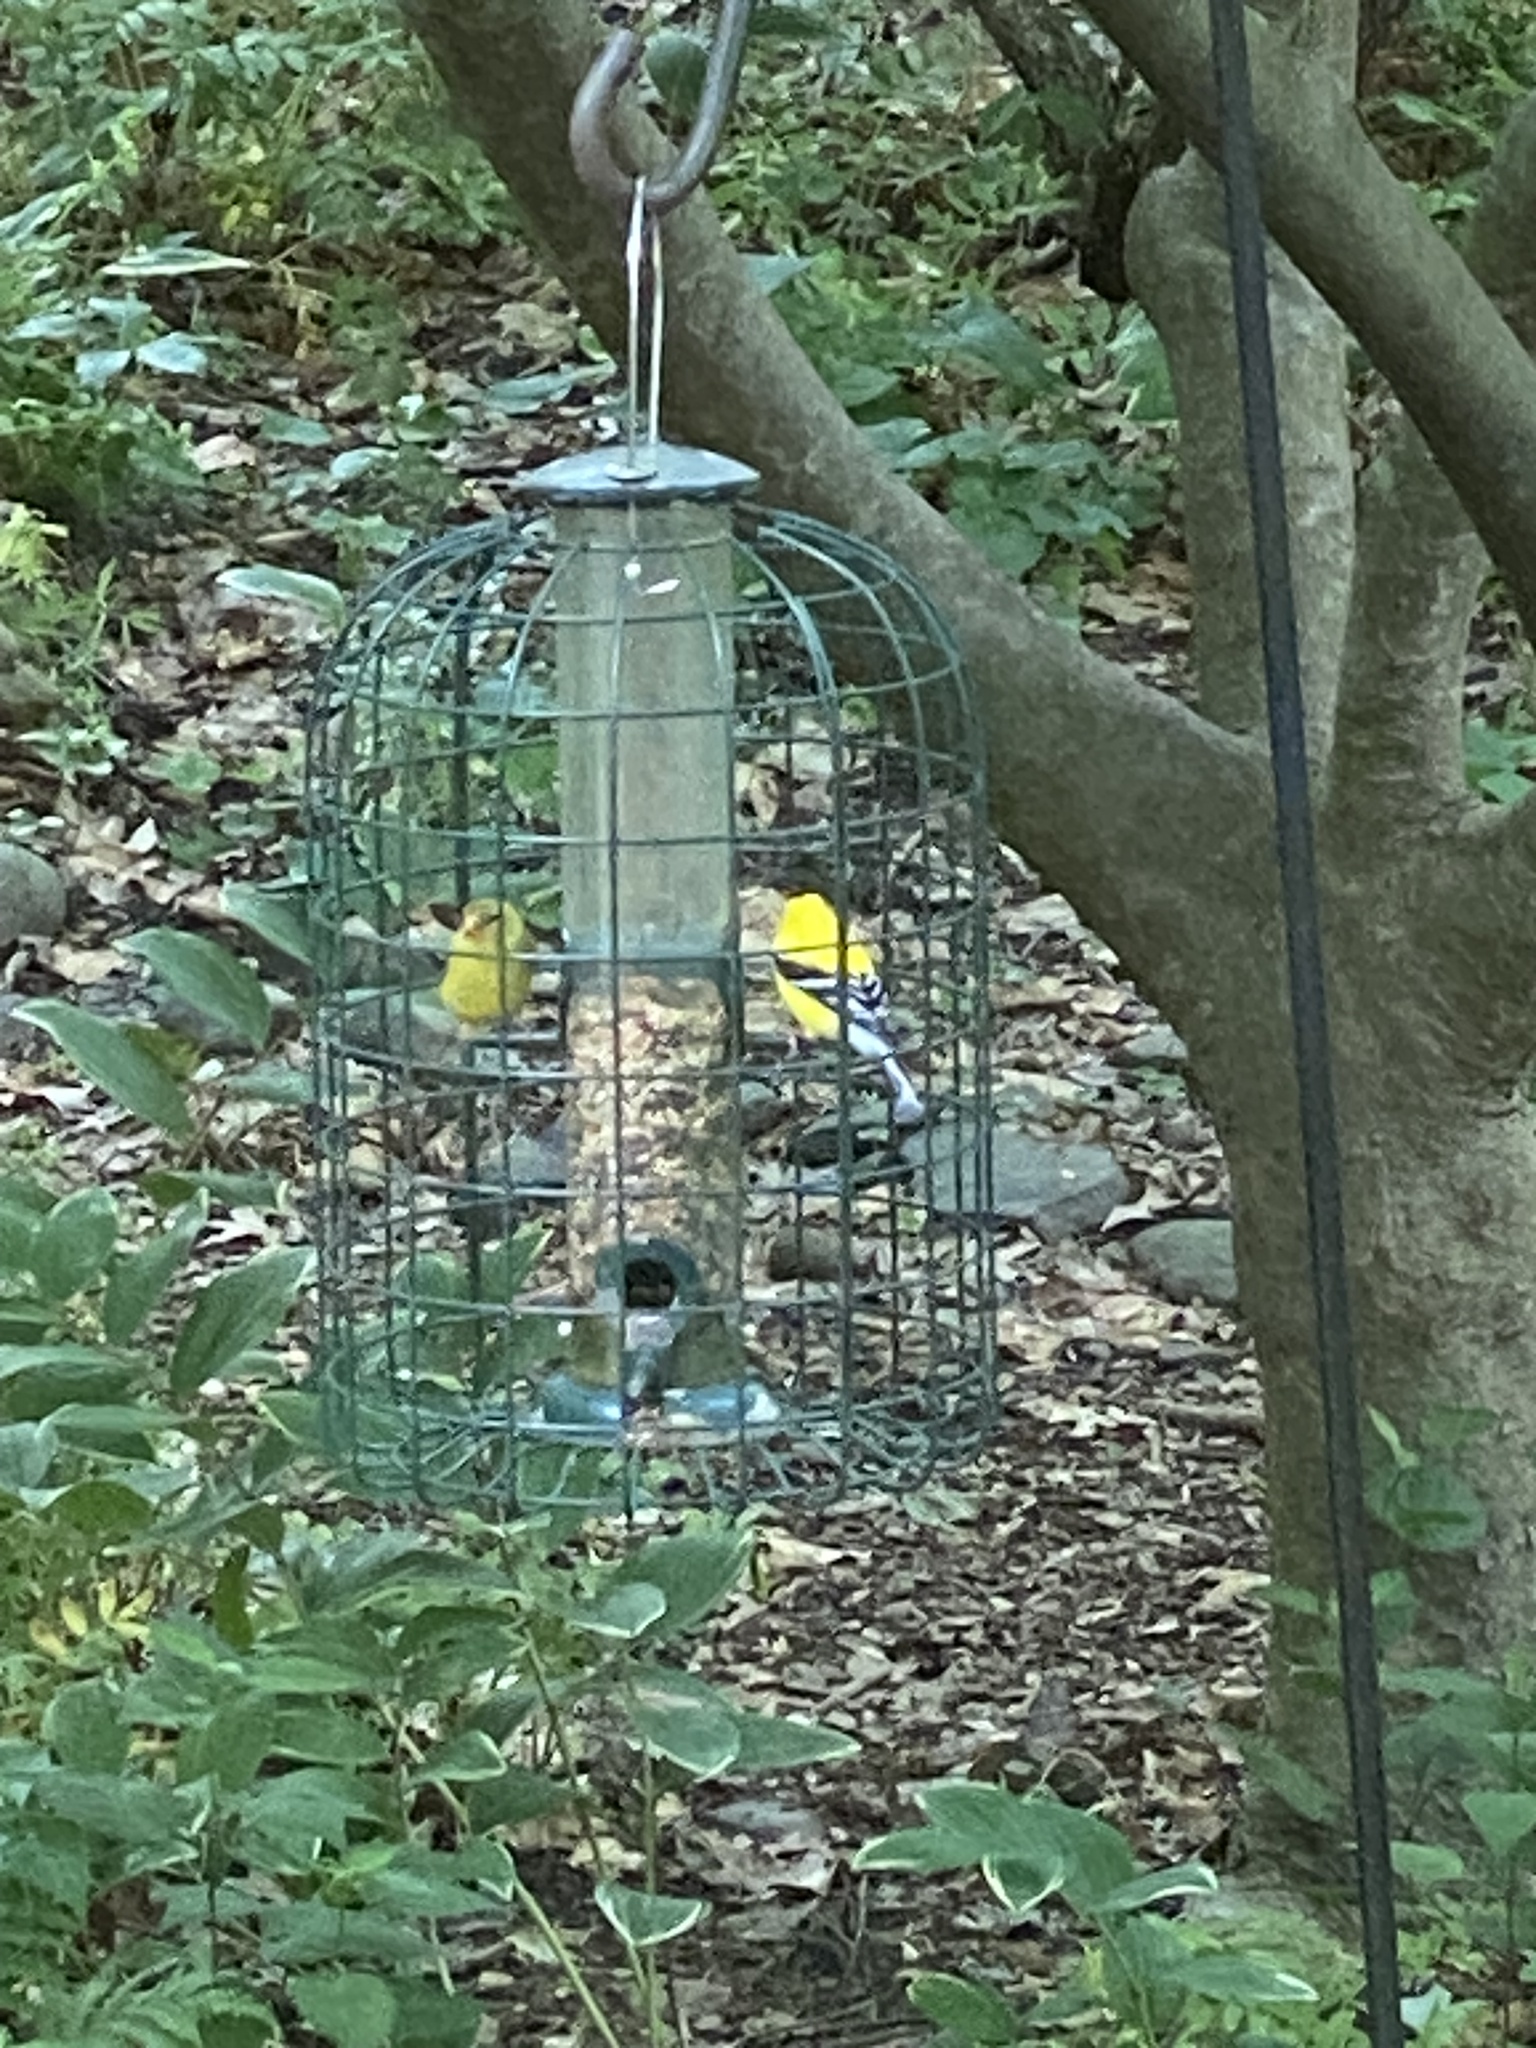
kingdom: Animalia
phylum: Chordata
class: Aves
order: Passeriformes
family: Fringillidae
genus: Spinus
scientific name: Spinus tristis
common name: American goldfinch
